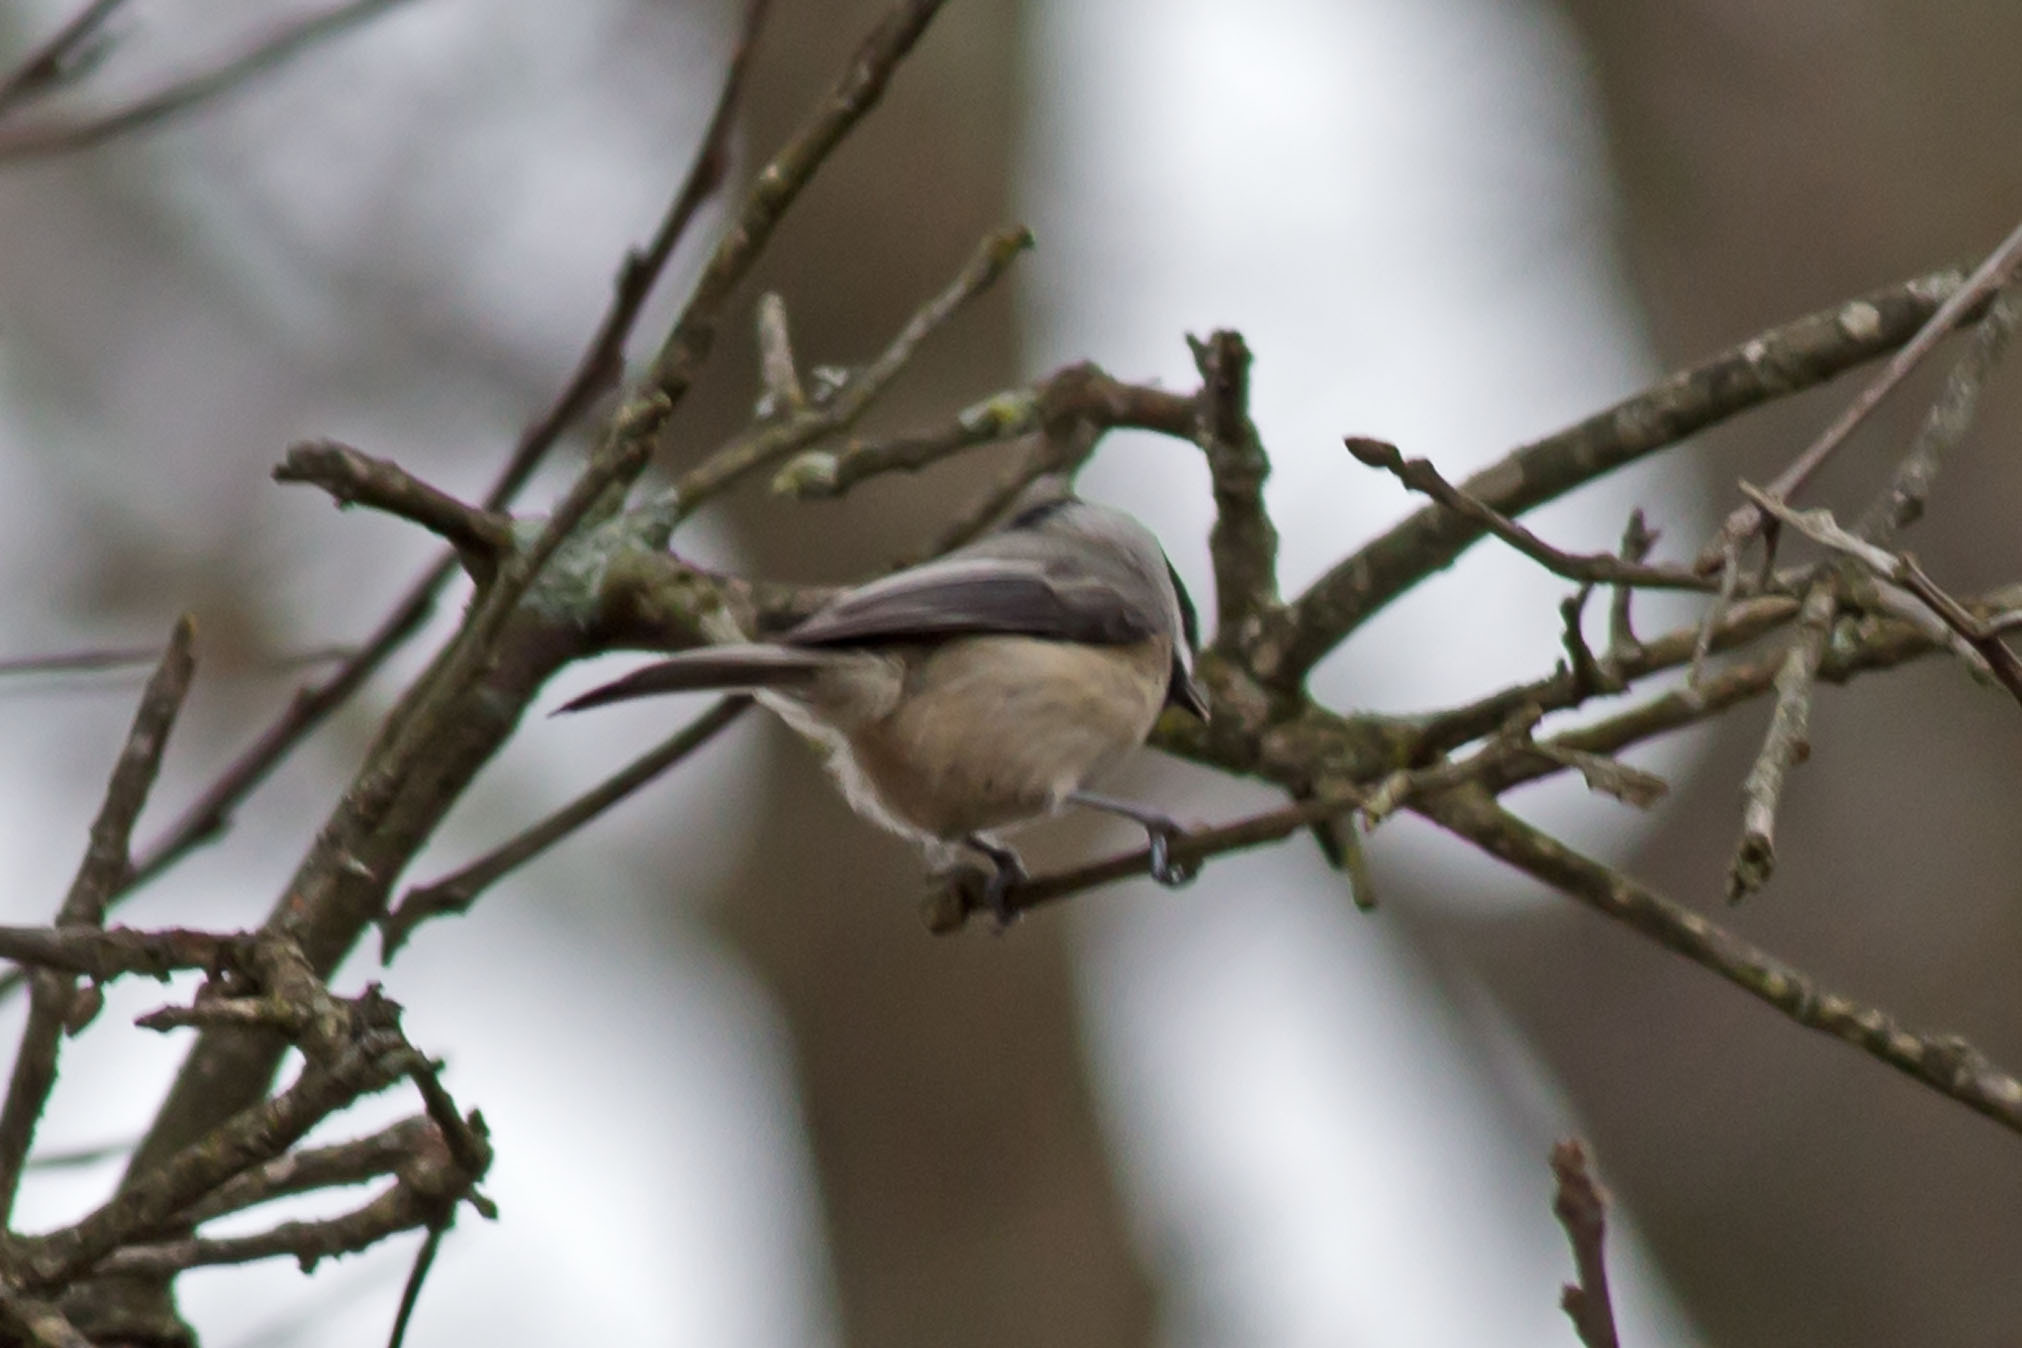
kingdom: Animalia
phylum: Chordata
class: Aves
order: Passeriformes
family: Paridae
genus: Poecile
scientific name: Poecile carolinensis
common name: Carolina chickadee
